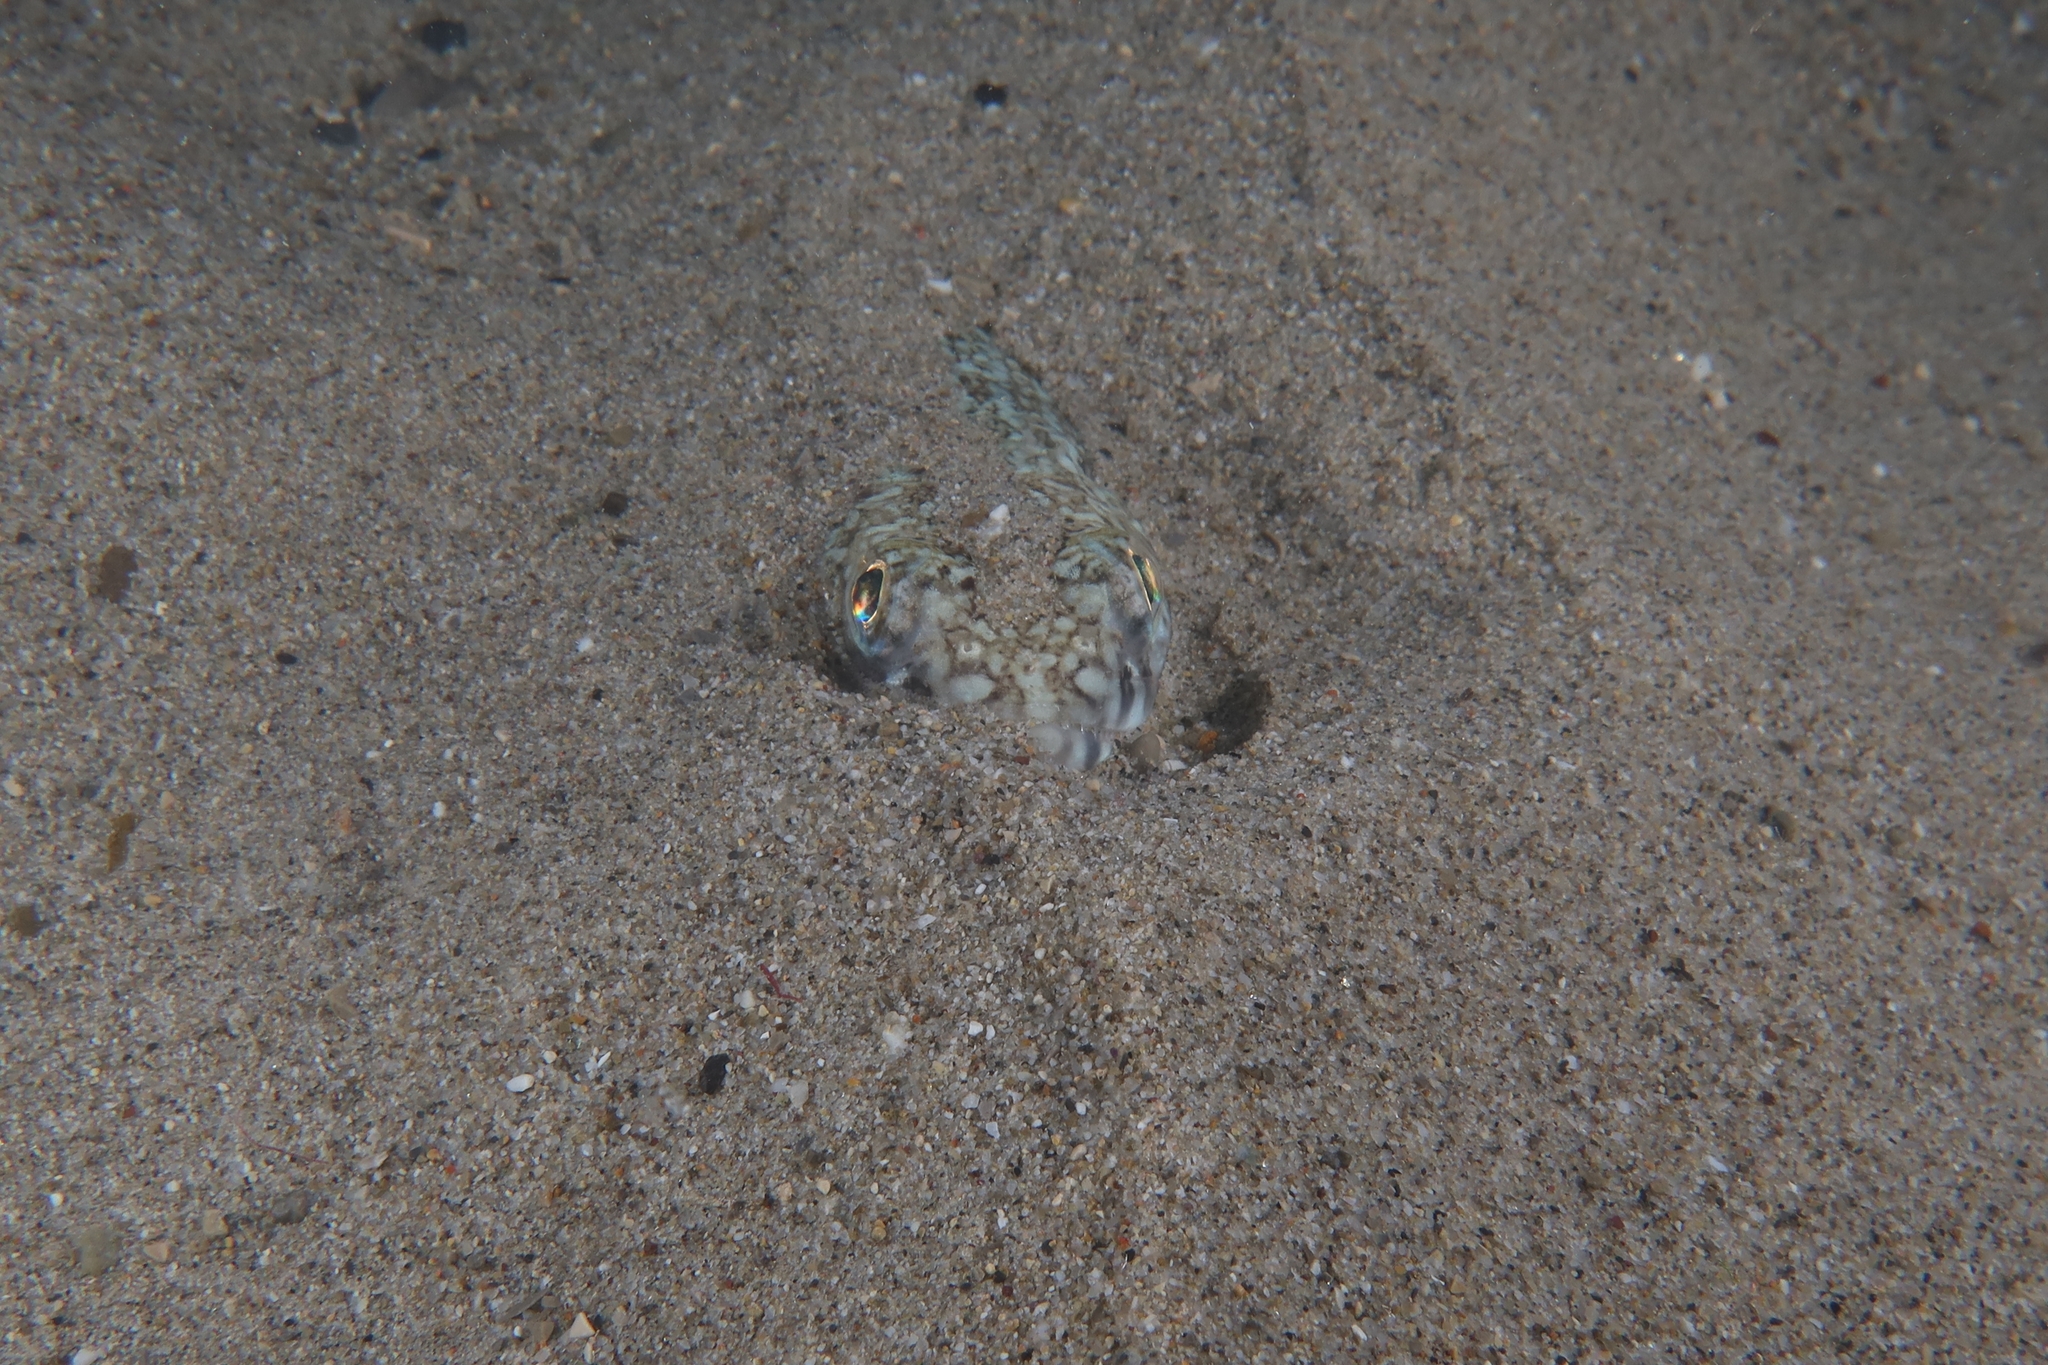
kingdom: Animalia
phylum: Chordata
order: Aulopiformes
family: Synodontidae
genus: Synodus
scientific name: Synodus saurus
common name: Atlantic lizardfish
